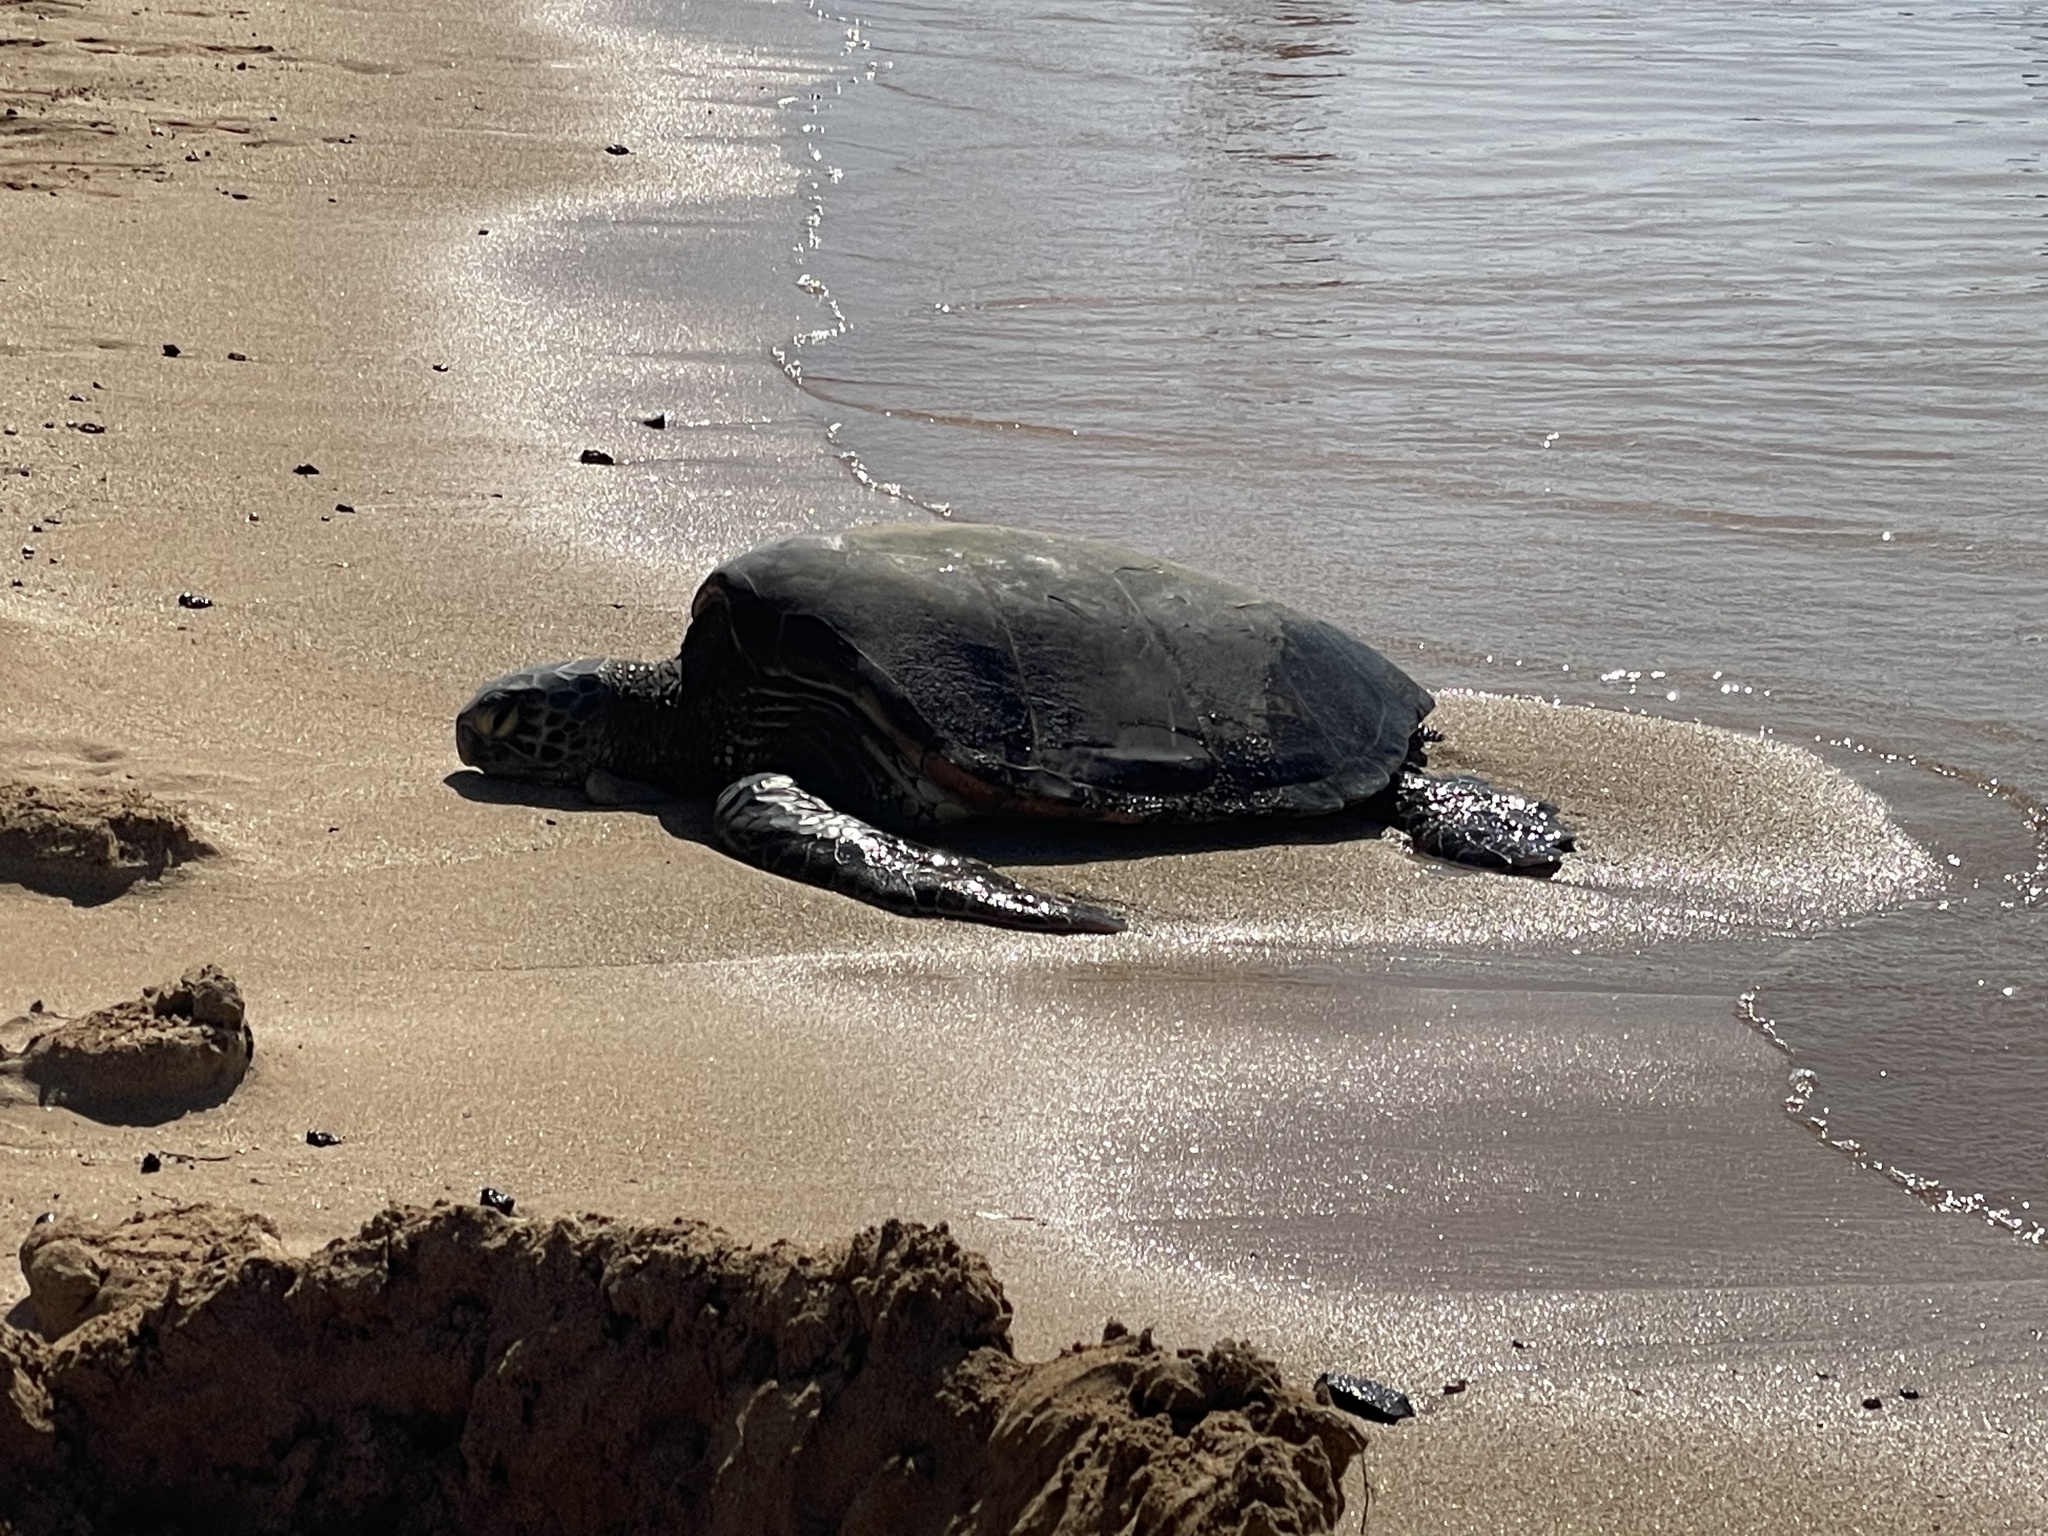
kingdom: Animalia
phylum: Chordata
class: Testudines
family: Cheloniidae
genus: Chelonia
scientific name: Chelonia mydas
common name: Green turtle
